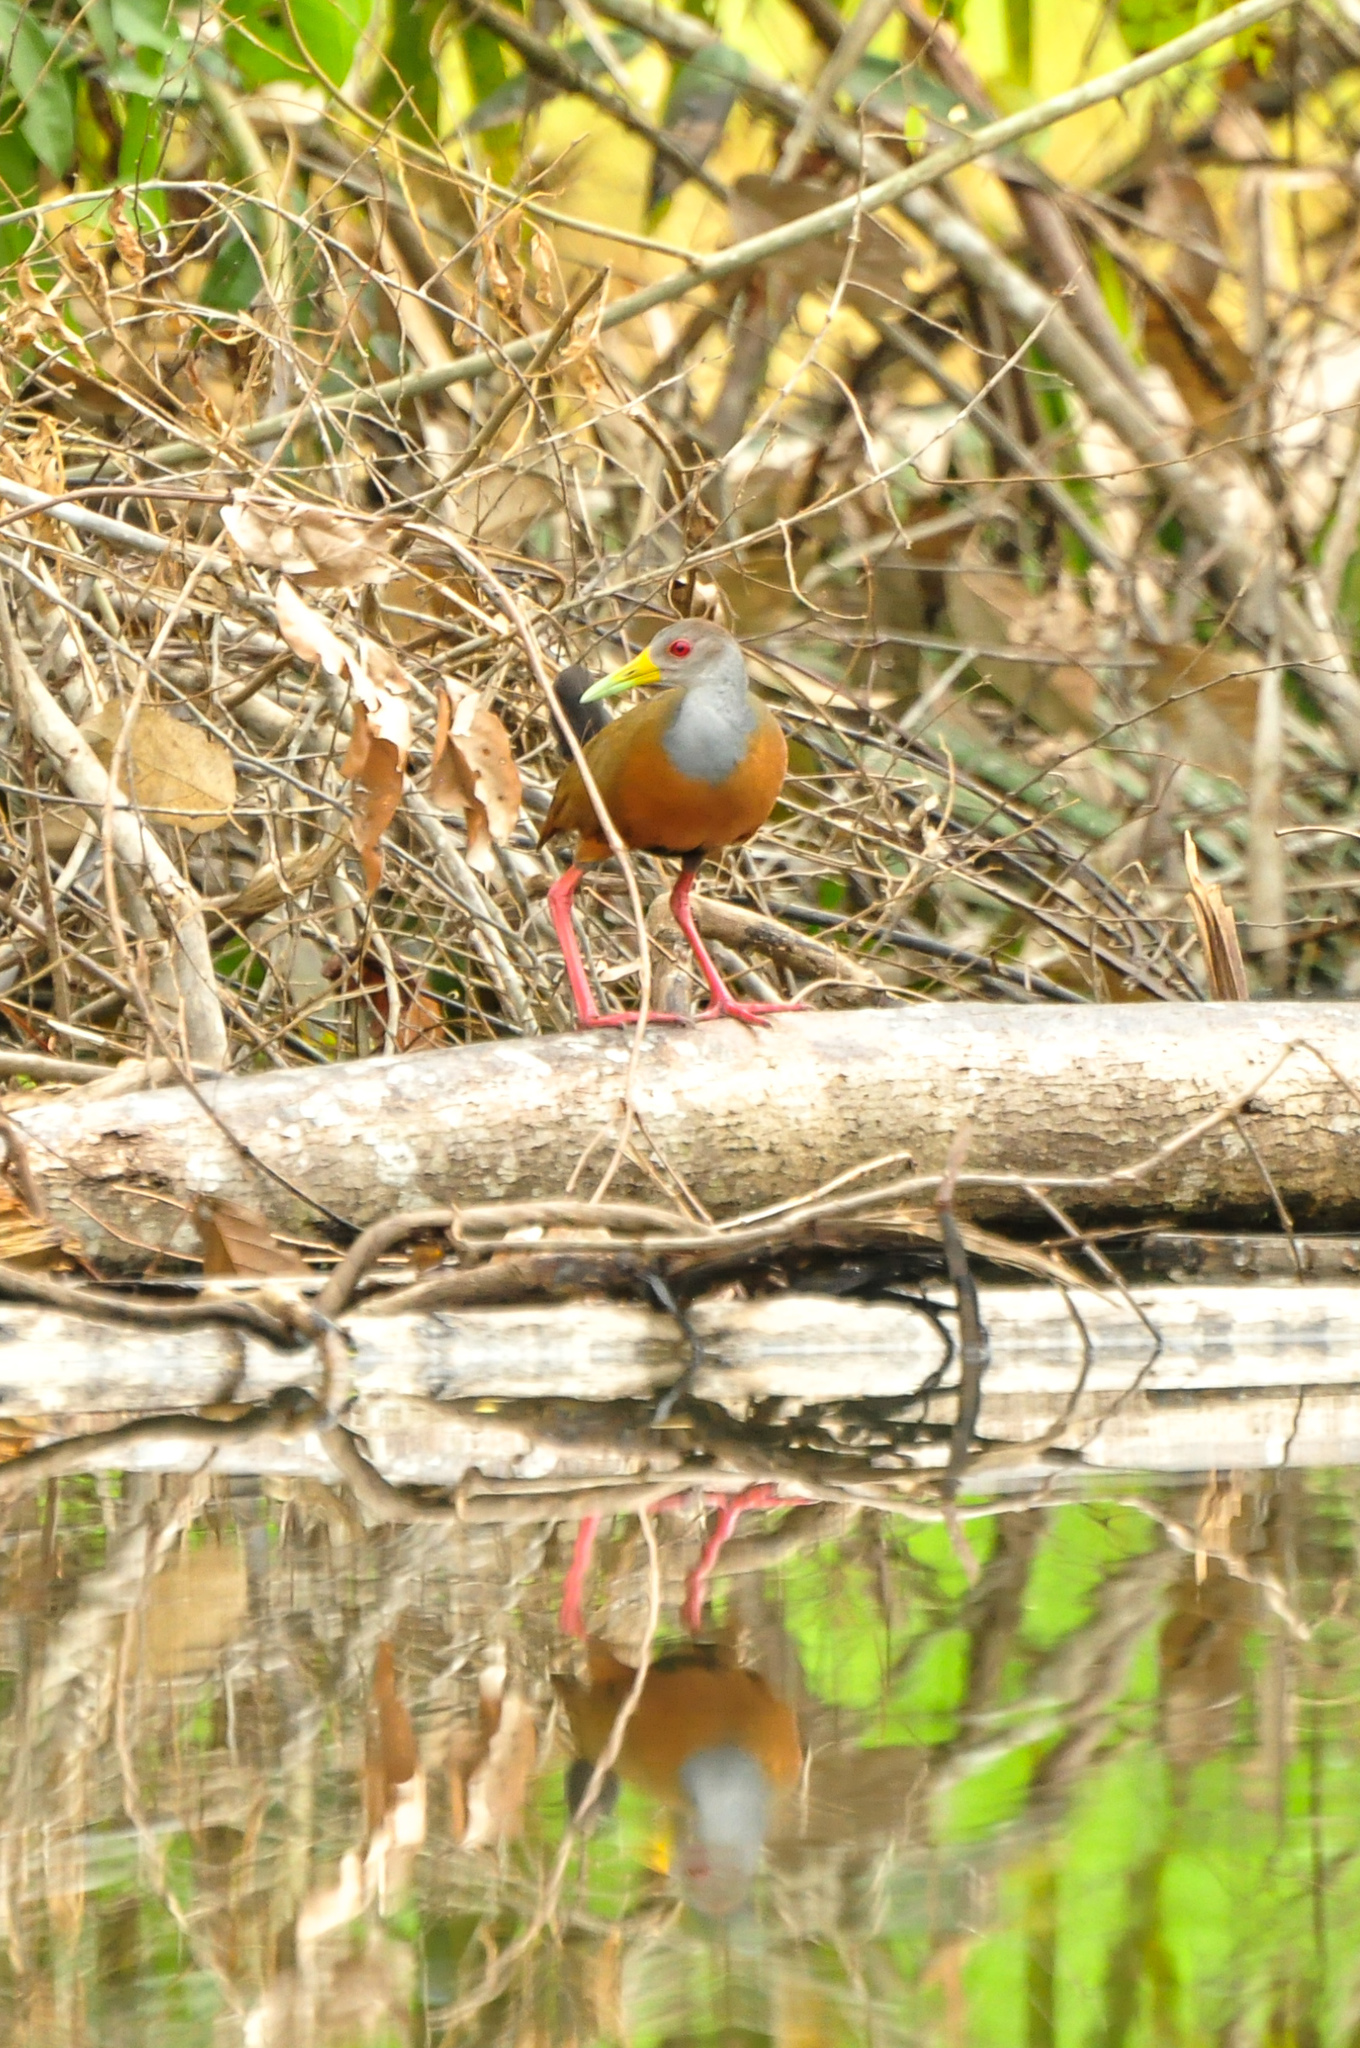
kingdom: Animalia
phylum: Chordata
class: Aves
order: Gruiformes
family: Rallidae
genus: Aramides
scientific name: Aramides cajanea
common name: Gray-necked wood-rail
